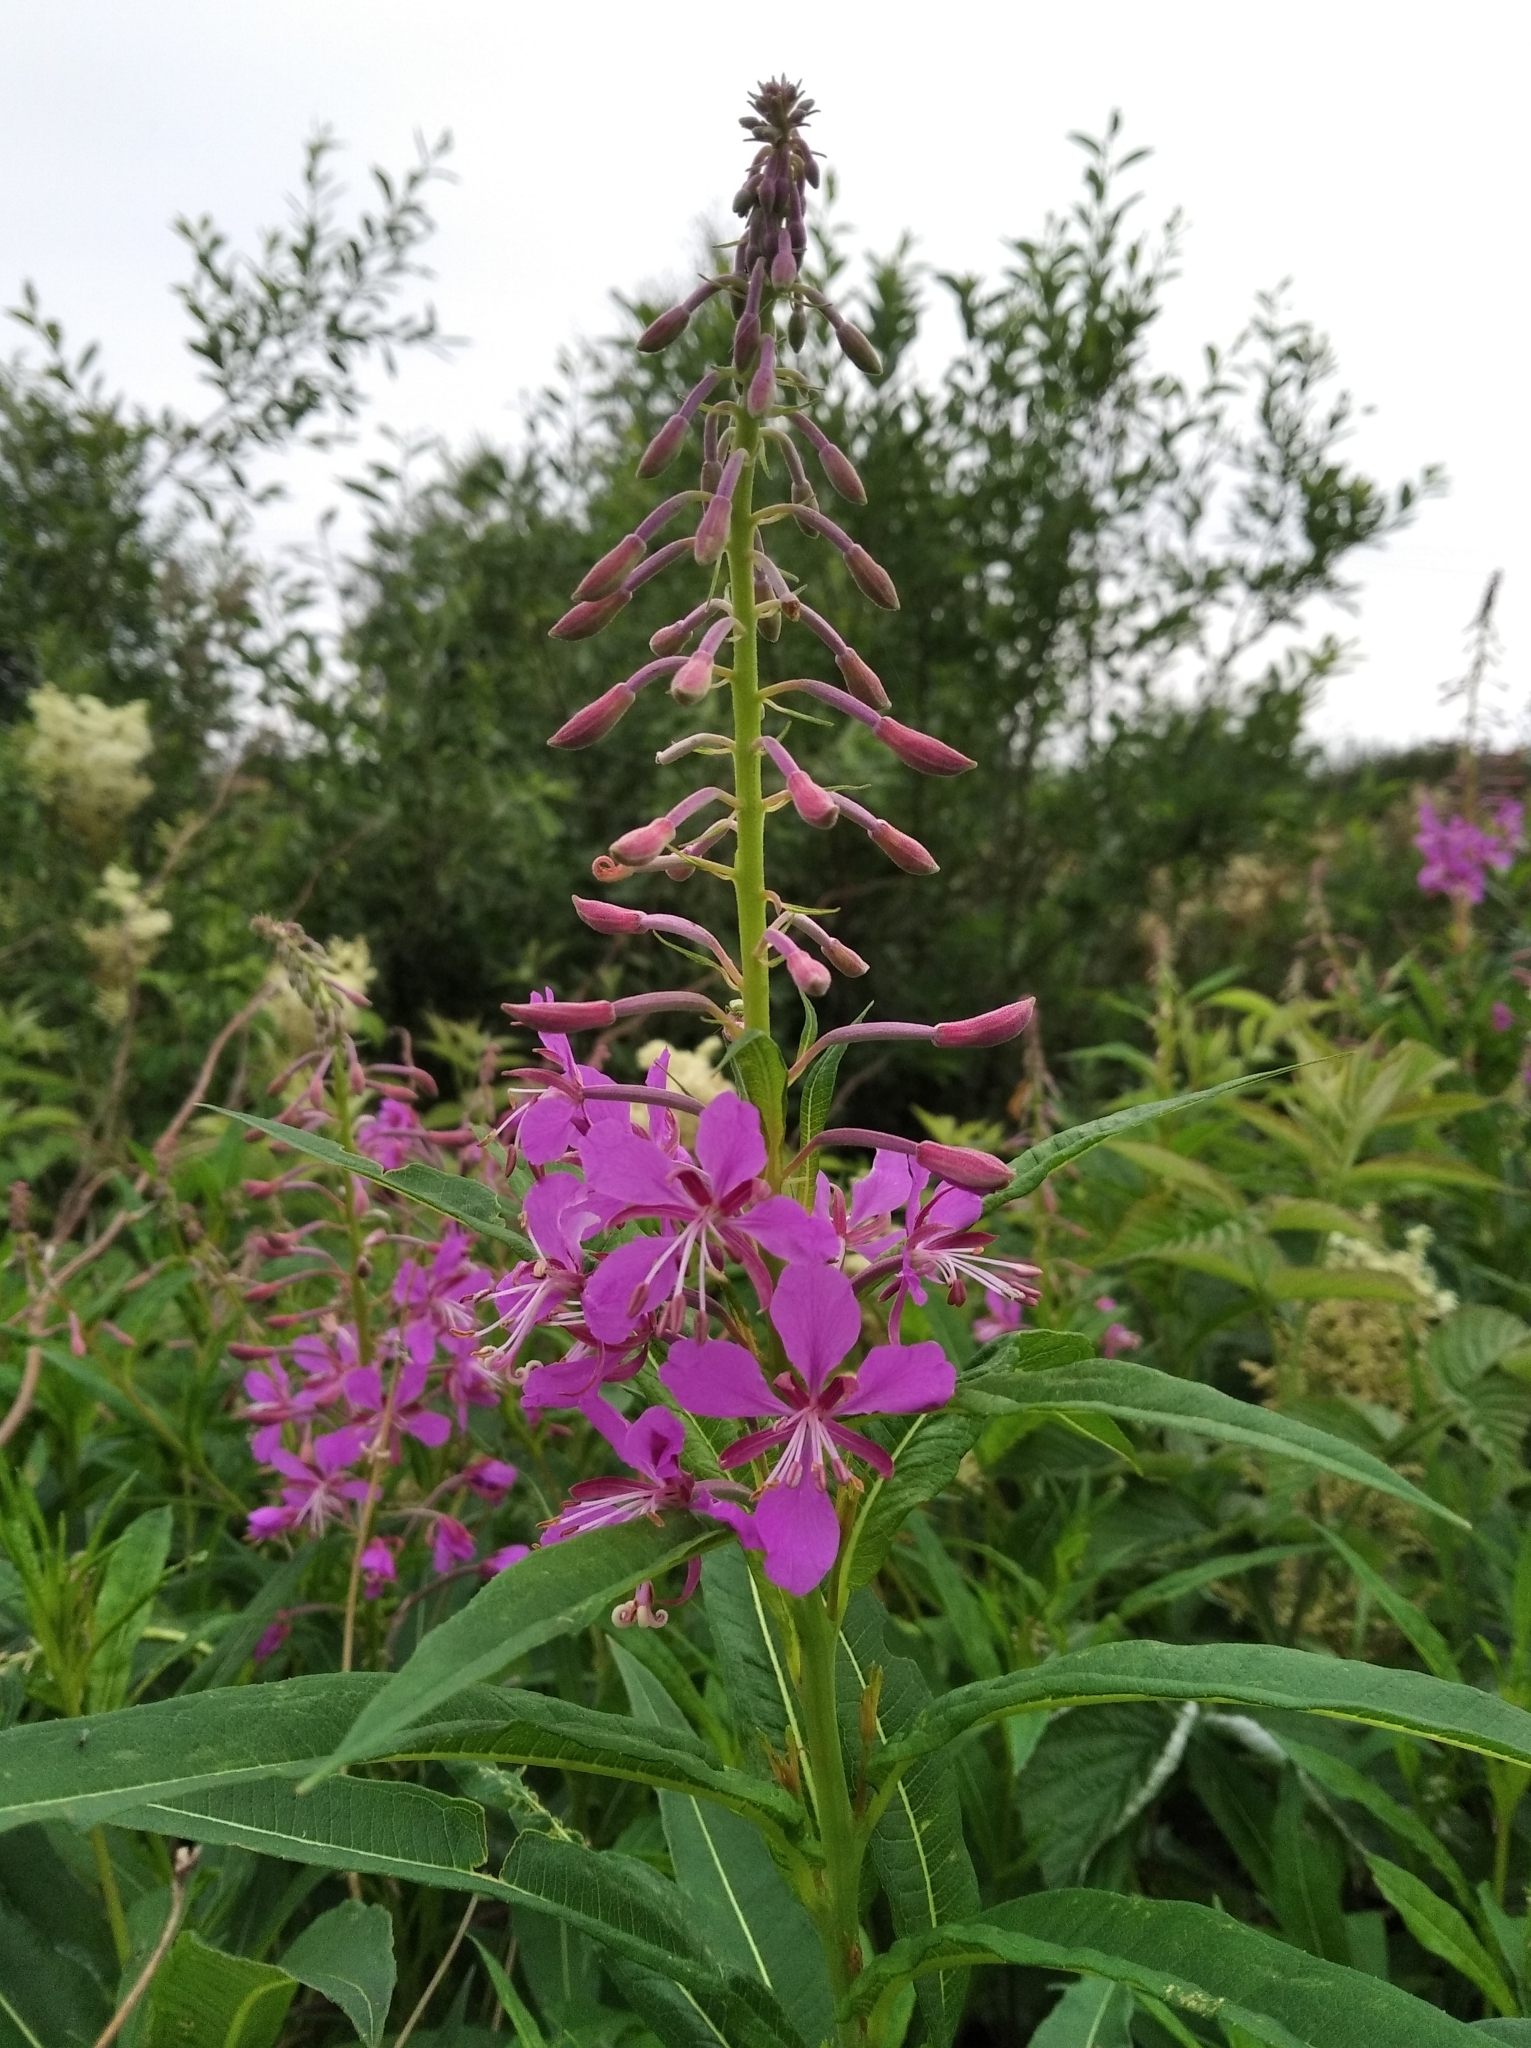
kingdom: Plantae
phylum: Tracheophyta
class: Magnoliopsida
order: Myrtales
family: Onagraceae
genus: Chamaenerion
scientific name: Chamaenerion angustifolium
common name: Fireweed
